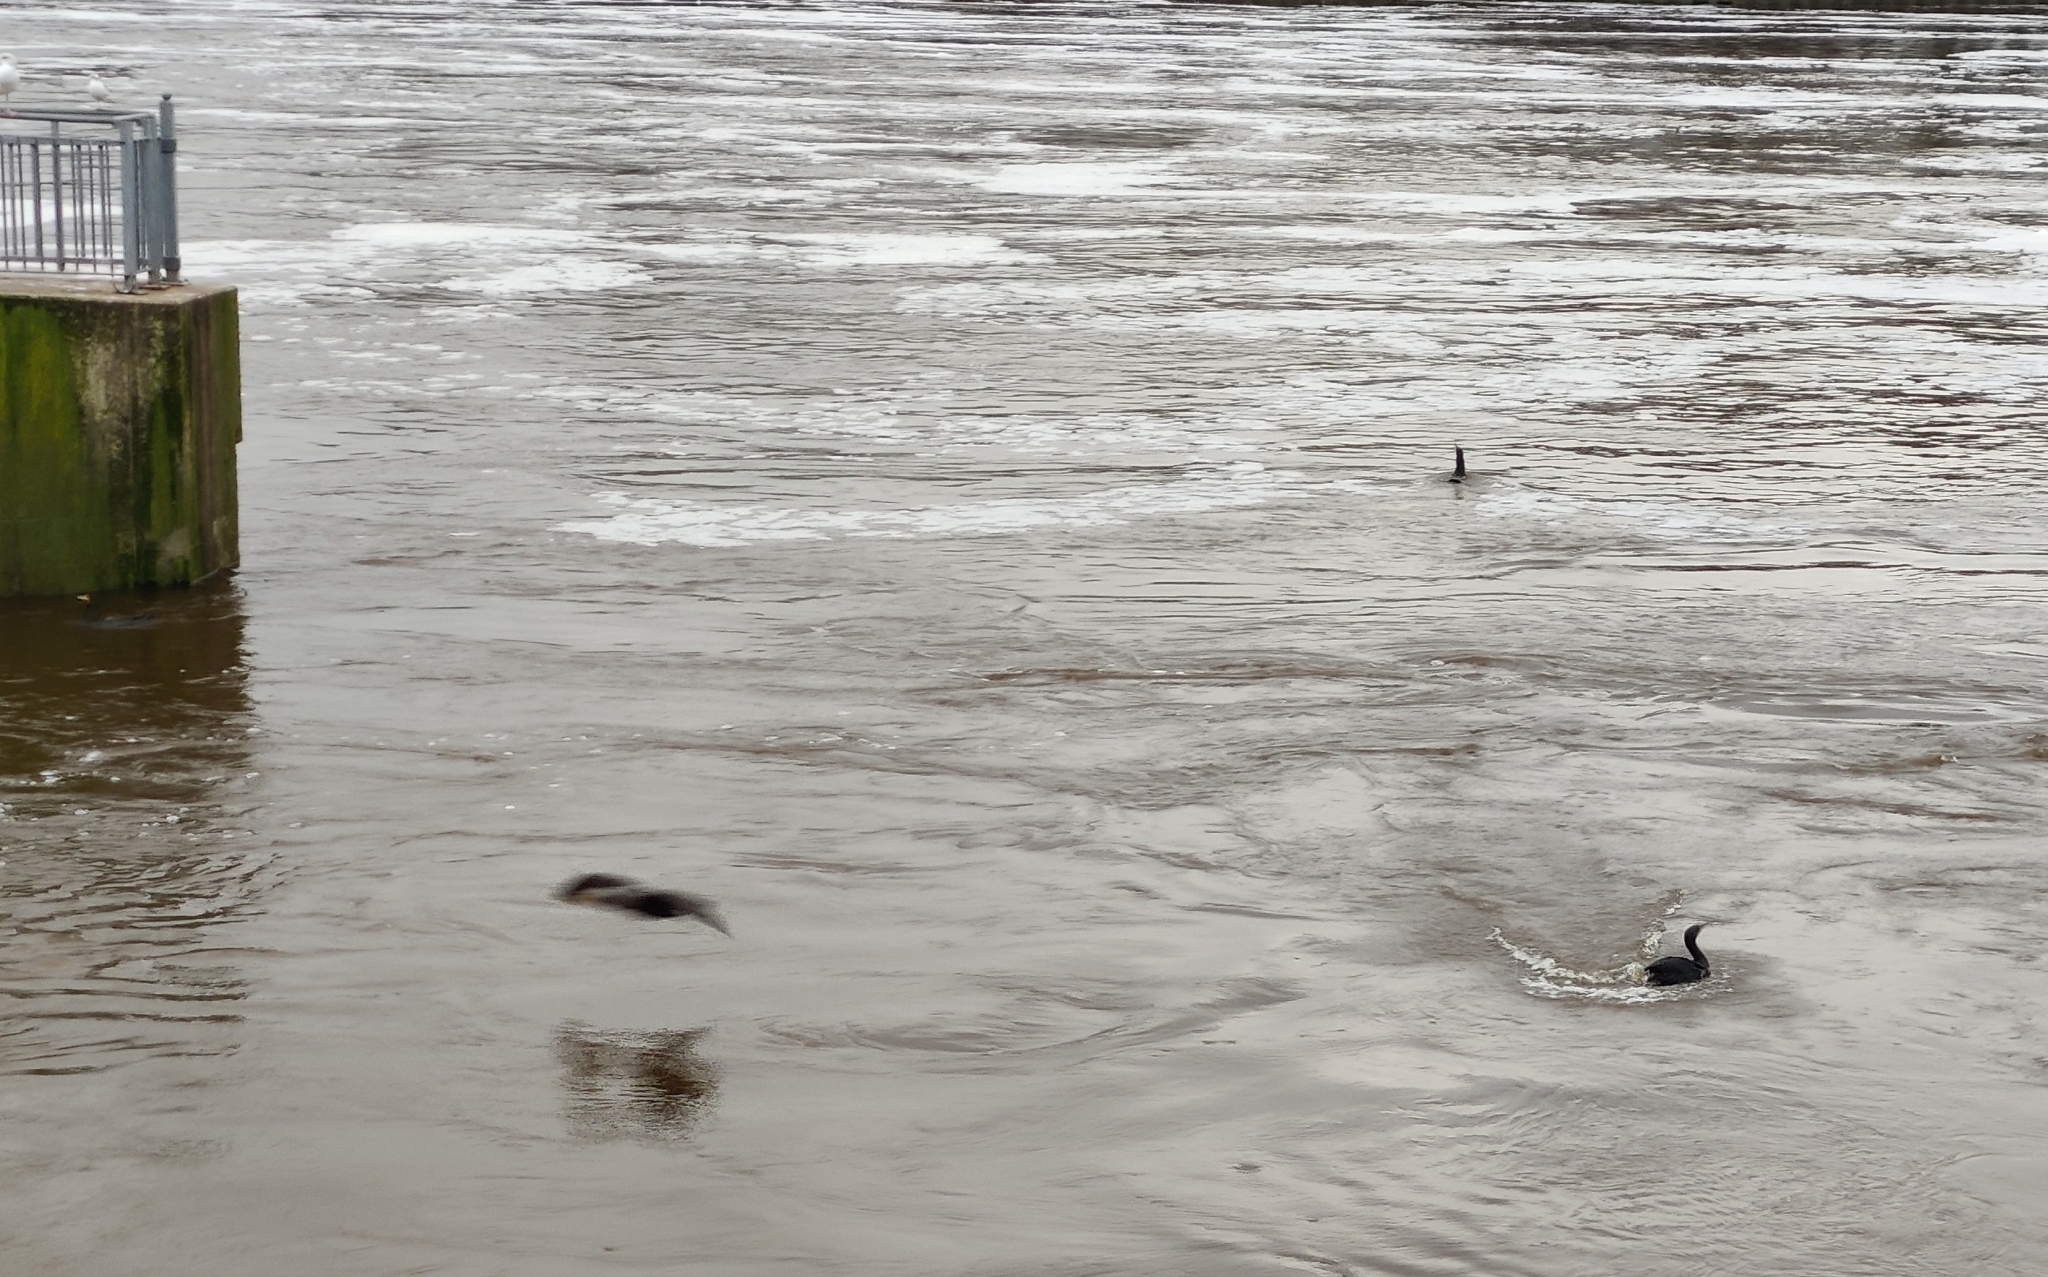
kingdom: Animalia
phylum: Chordata
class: Aves
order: Suliformes
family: Phalacrocoracidae
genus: Phalacrocorax
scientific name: Phalacrocorax carbo
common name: Great cormorant
